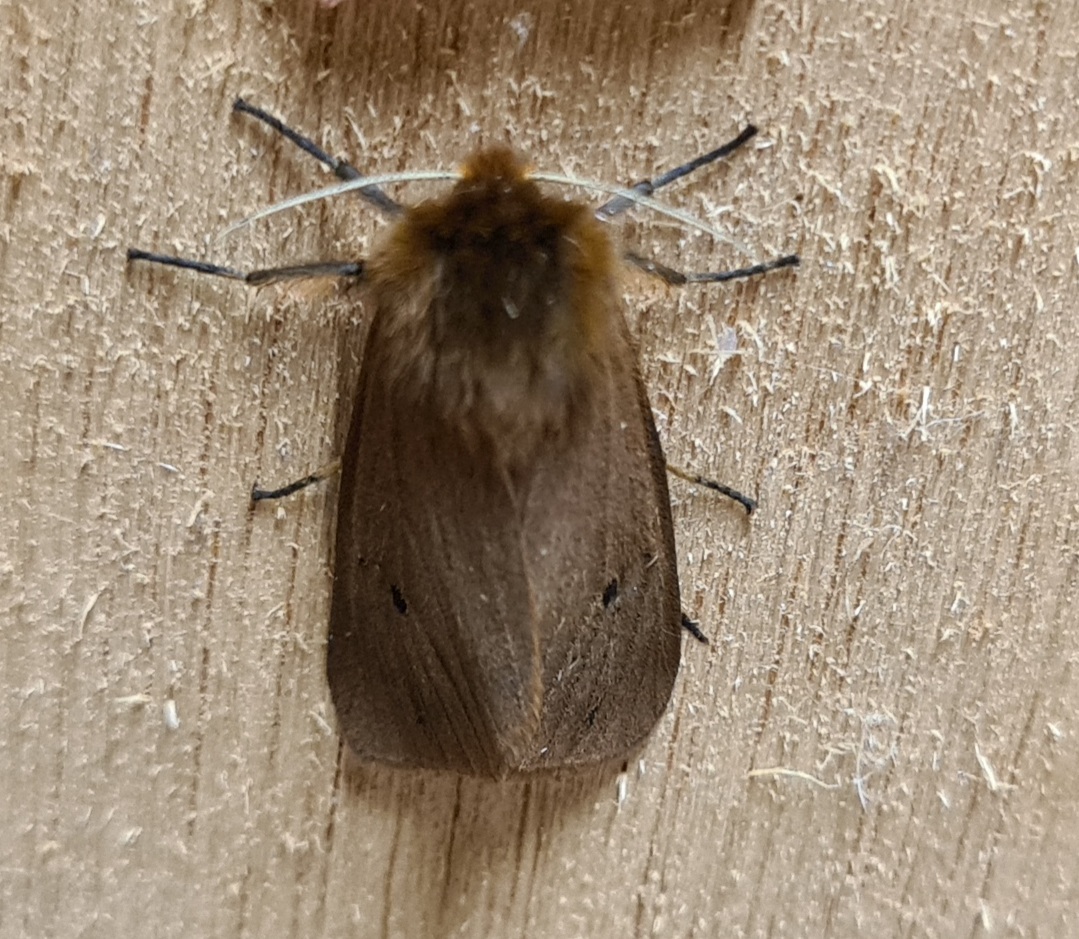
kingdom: Animalia
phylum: Arthropoda
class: Insecta
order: Lepidoptera
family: Erebidae
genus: Phragmatobia
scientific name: Phragmatobia fuliginosa
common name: Ruby tiger
